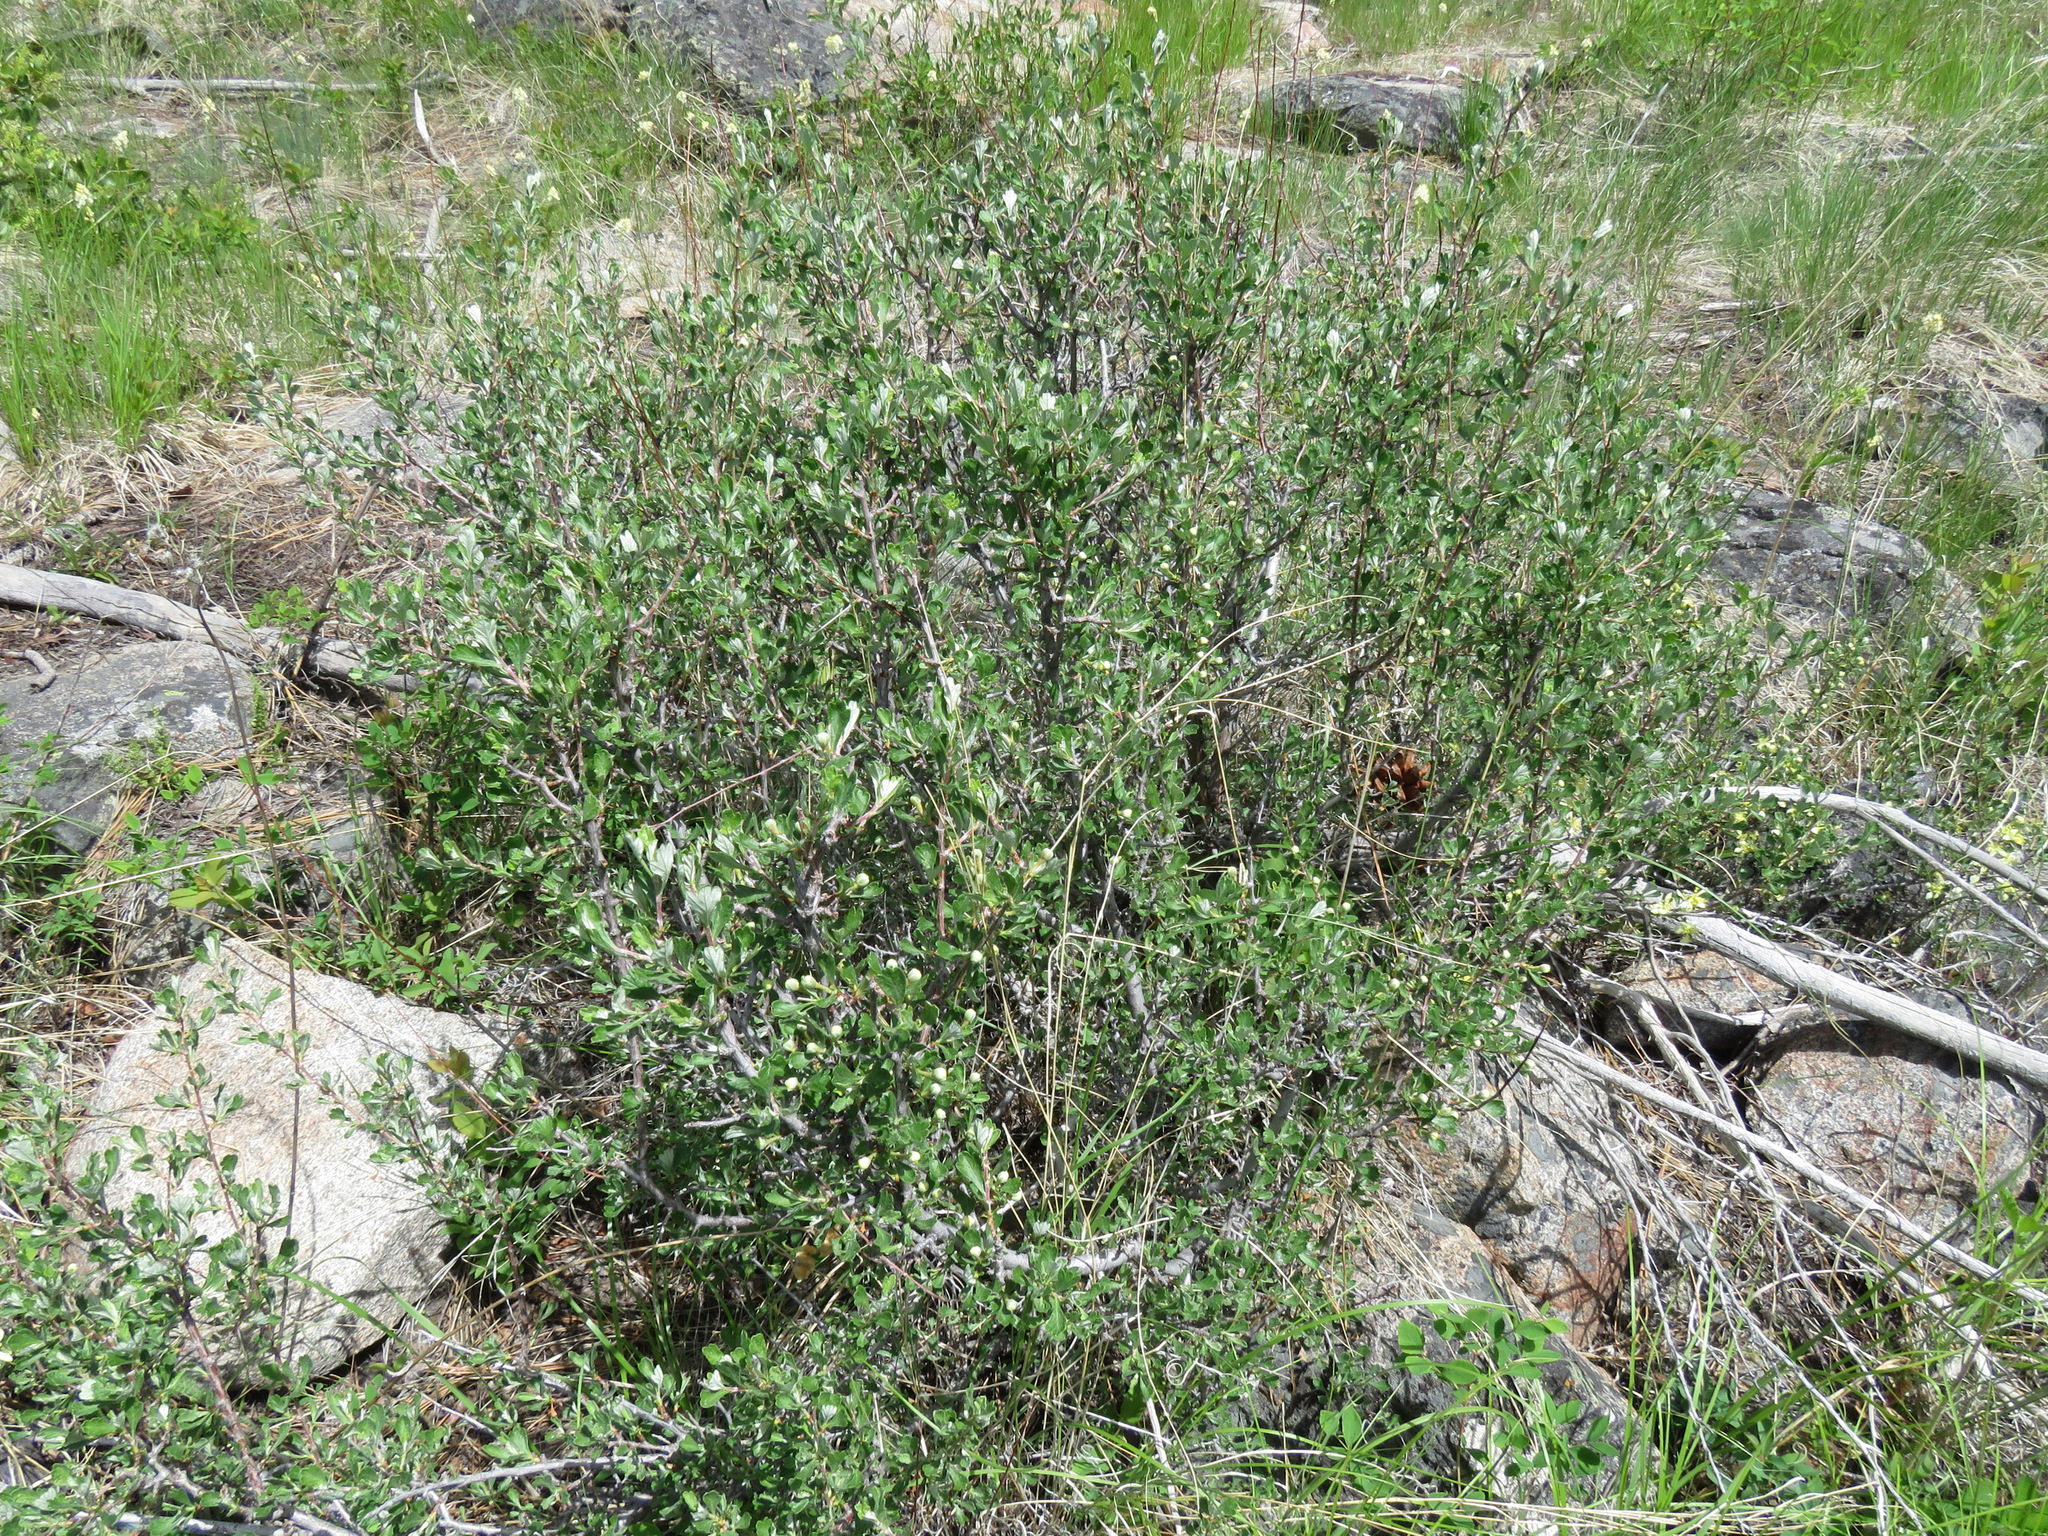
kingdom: Plantae
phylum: Tracheophyta
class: Magnoliopsida
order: Rosales
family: Rosaceae
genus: Purshia
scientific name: Purshia tridentata
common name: Antelope bitterbrush
